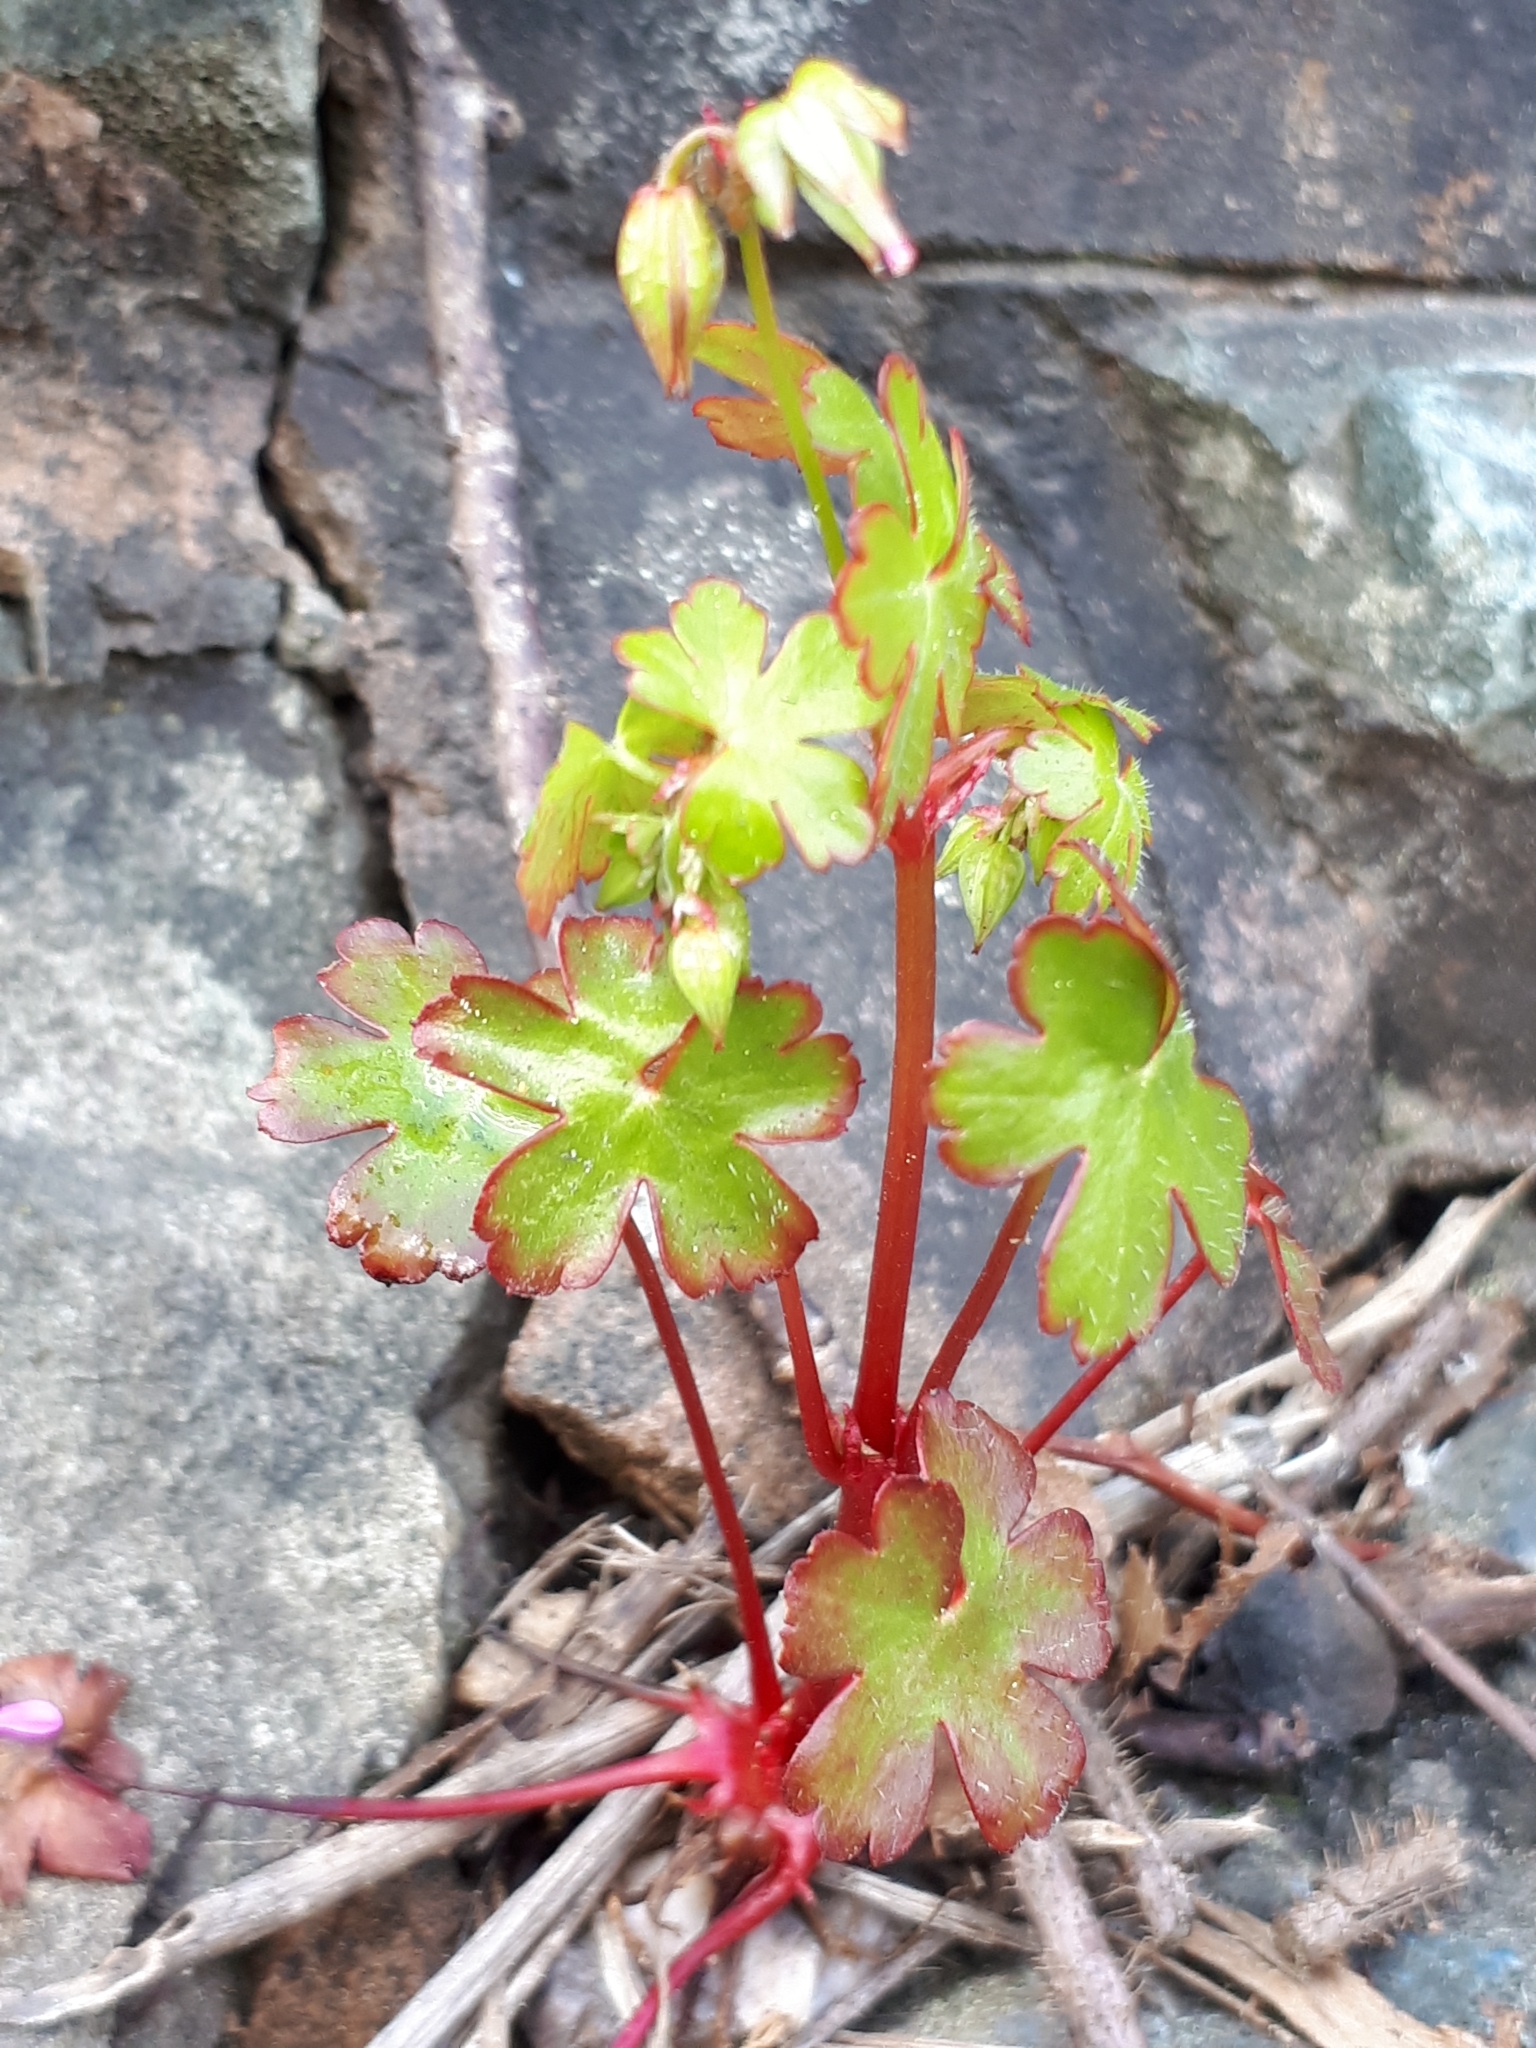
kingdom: Plantae
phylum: Tracheophyta
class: Magnoliopsida
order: Geraniales
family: Geraniaceae
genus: Geranium
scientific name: Geranium lucidum
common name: Shining crane's-bill
